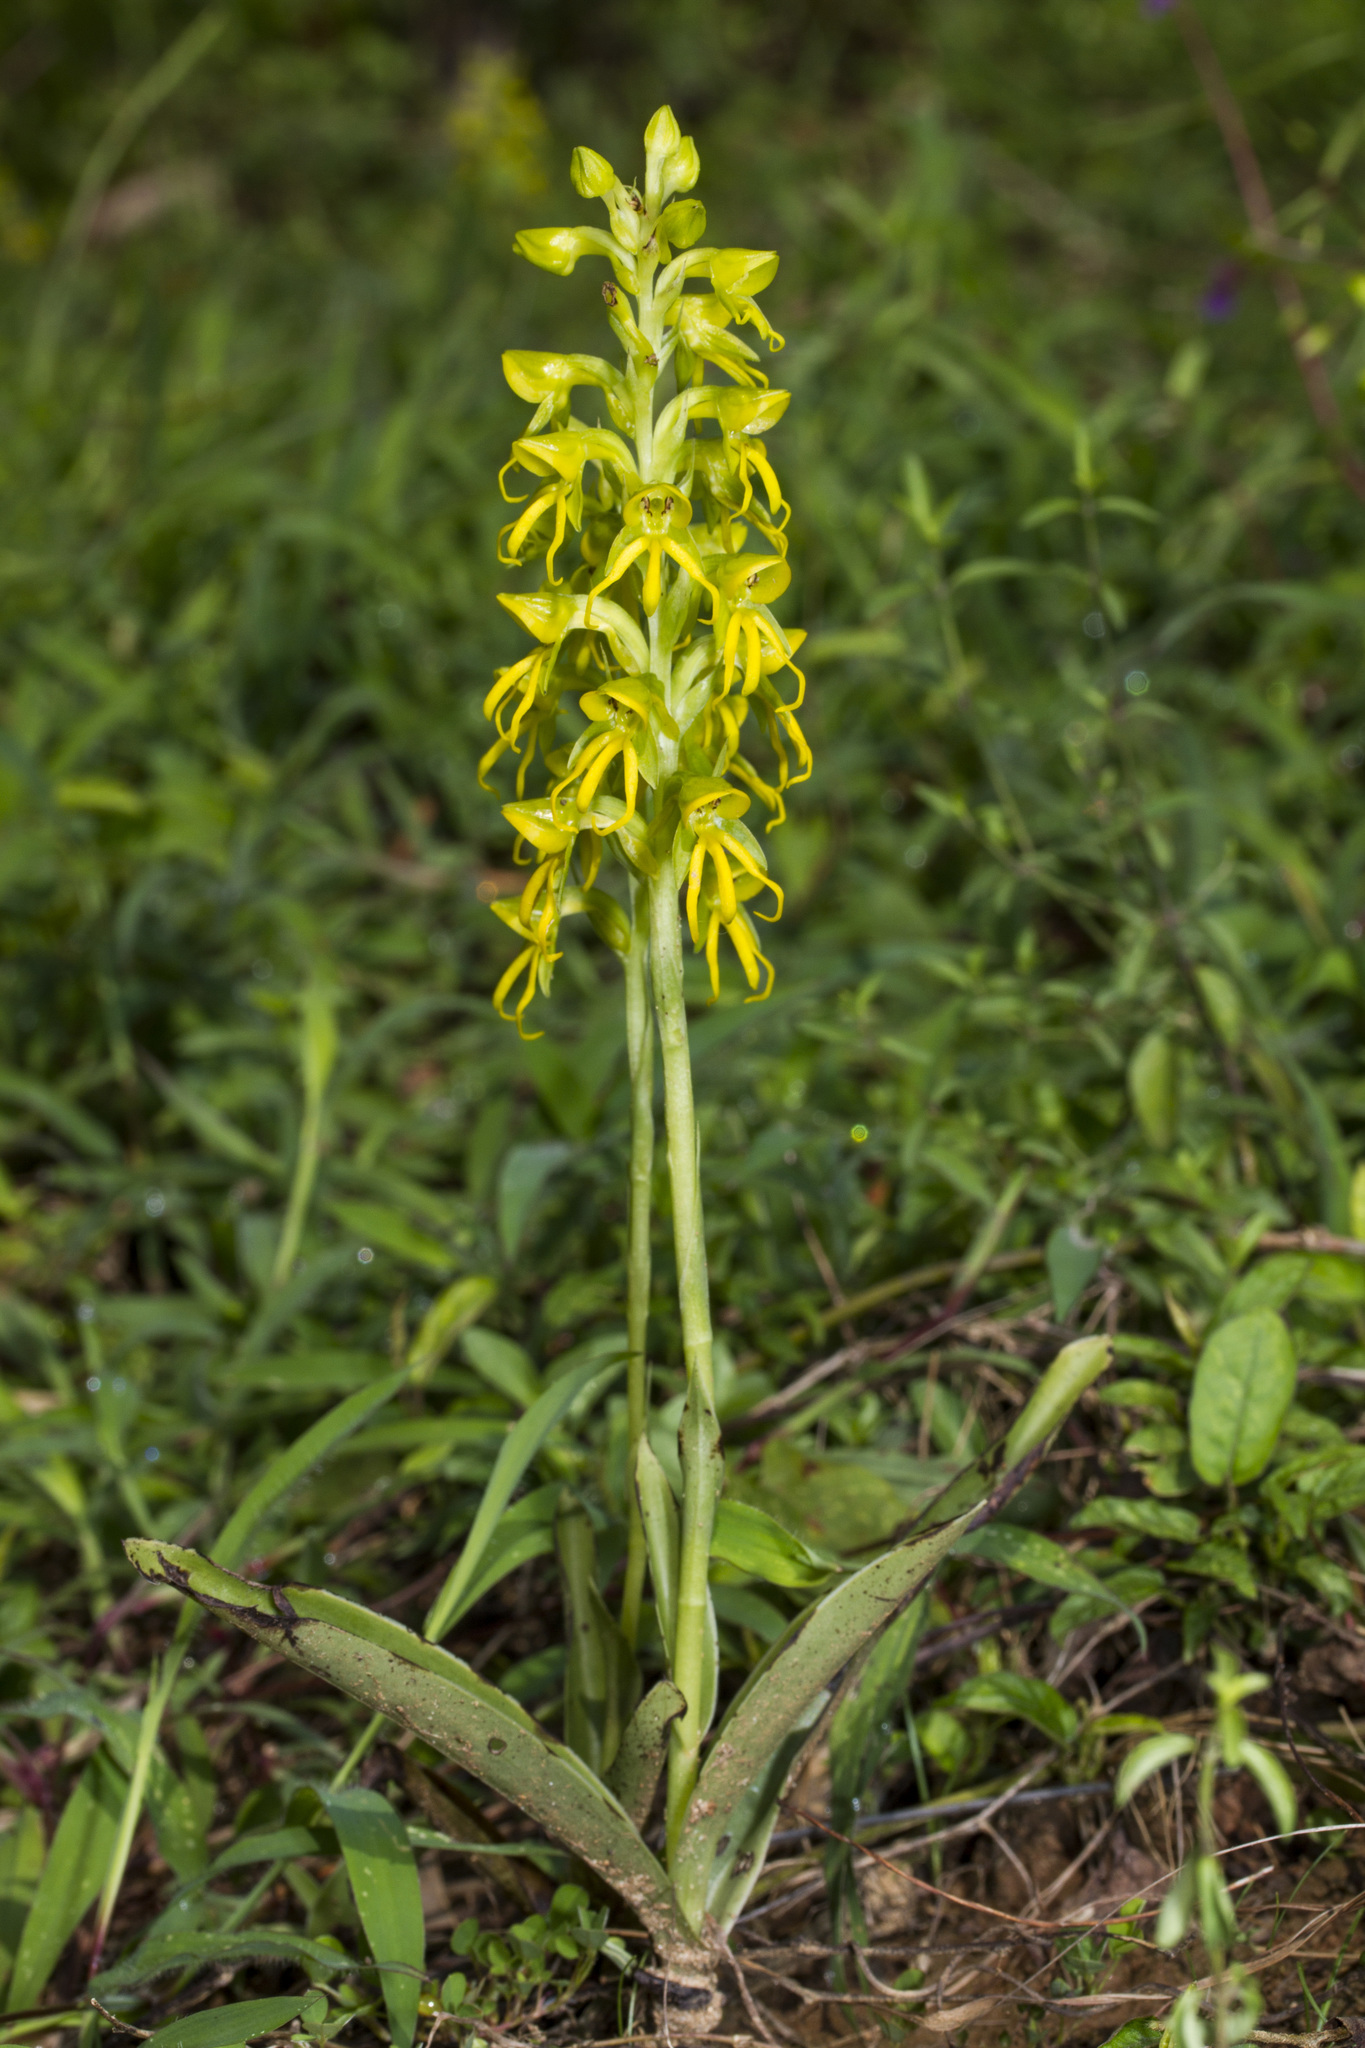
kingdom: Plantae
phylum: Tracheophyta
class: Liliopsida
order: Asparagales
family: Orchidaceae
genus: Habenaria
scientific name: Habenaria marginata
